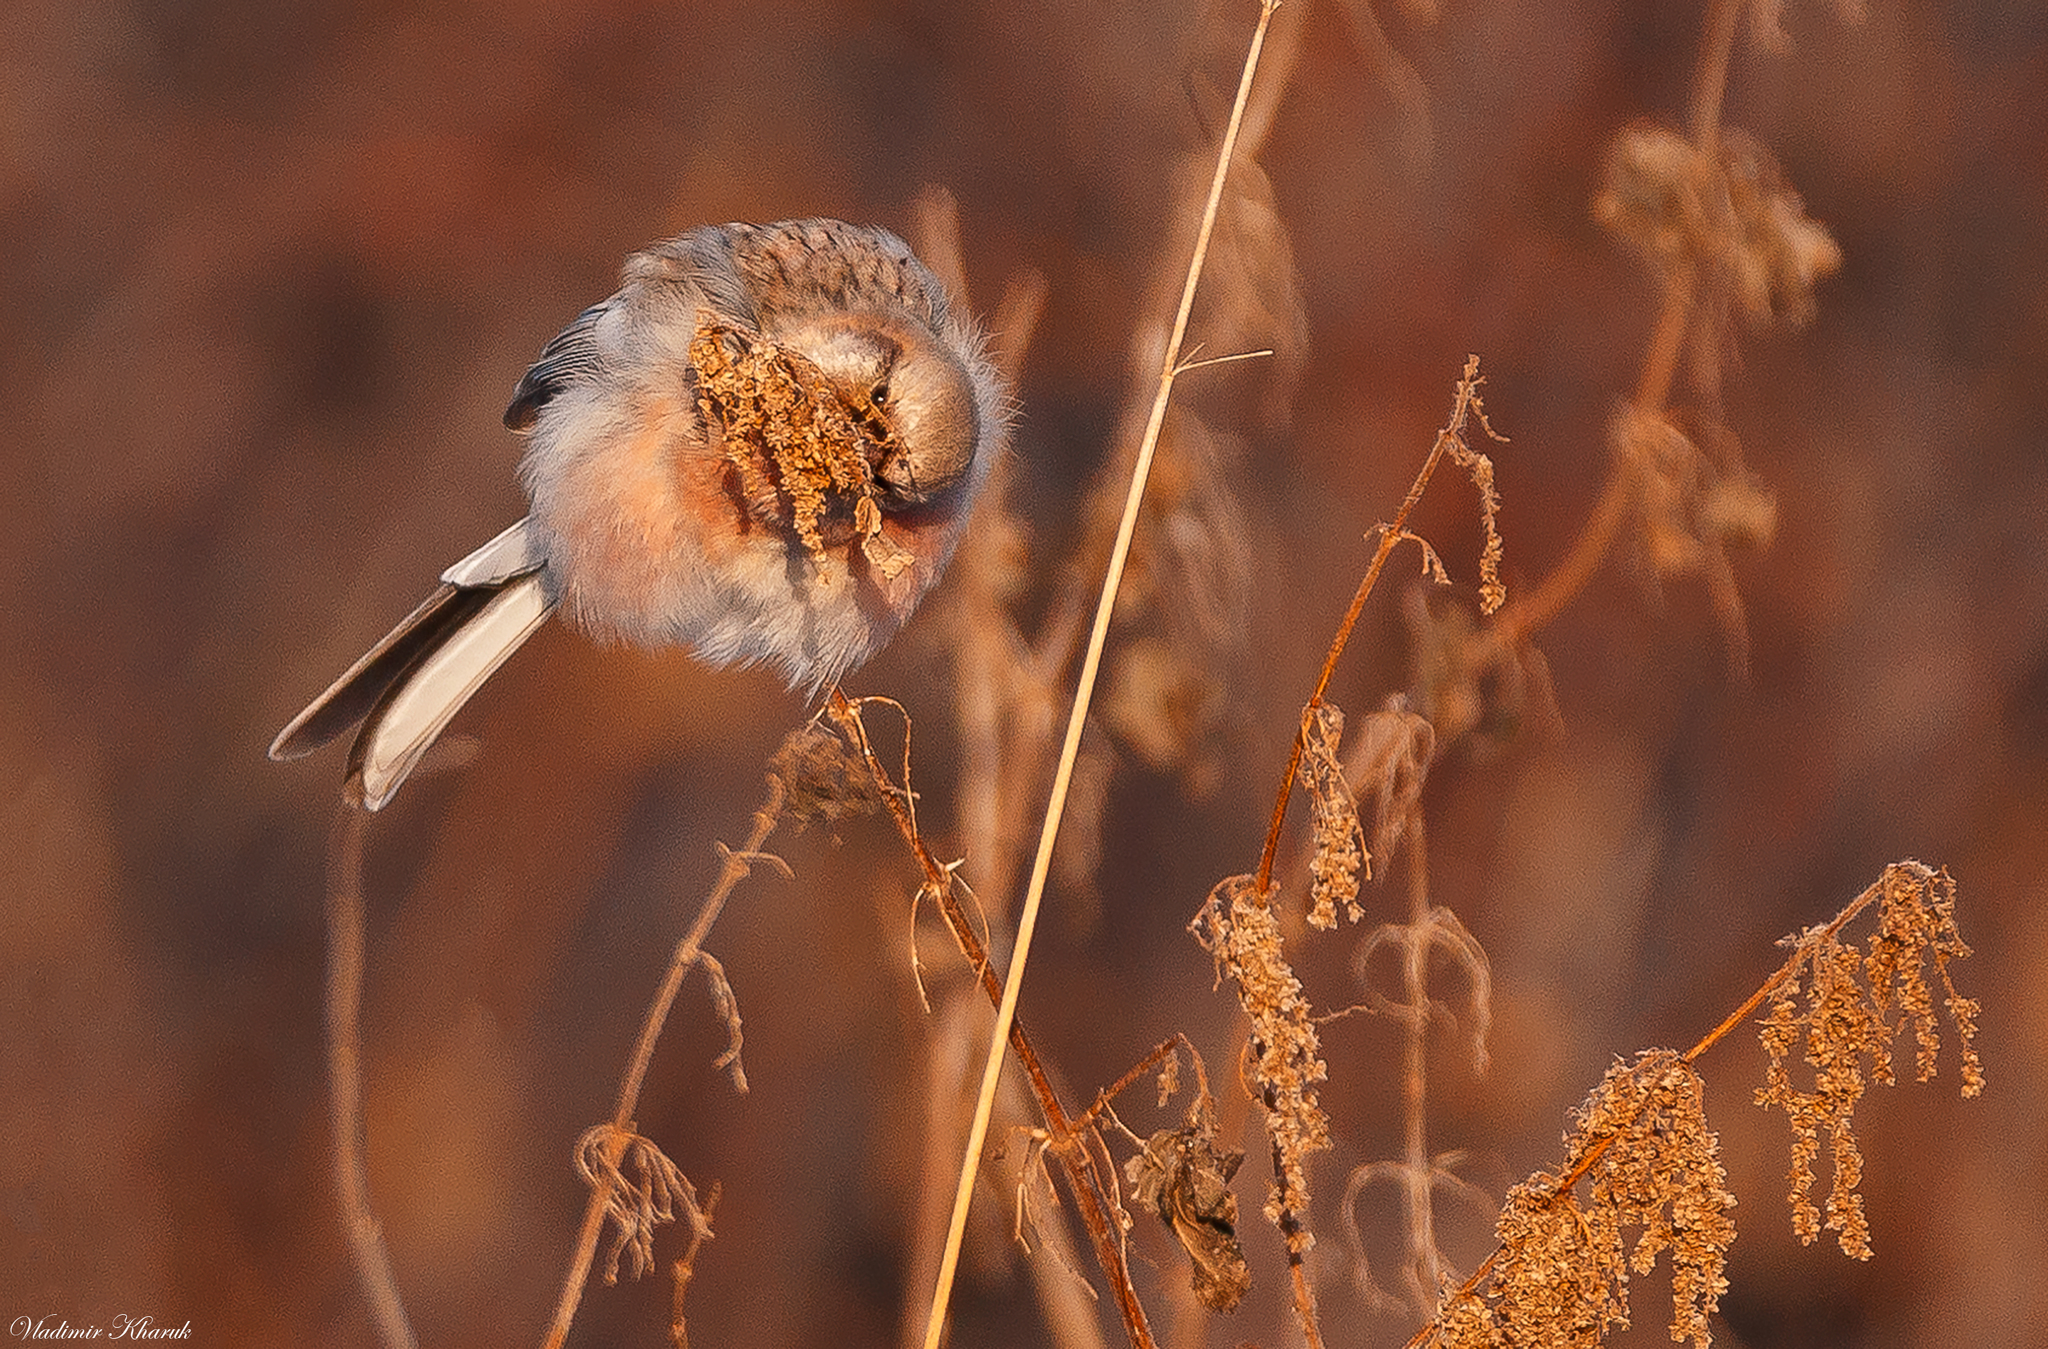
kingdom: Animalia
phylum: Chordata
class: Aves
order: Passeriformes
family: Fringillidae
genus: Carpodacus
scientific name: Carpodacus sibiricus
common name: Long-tailed rosefinch
